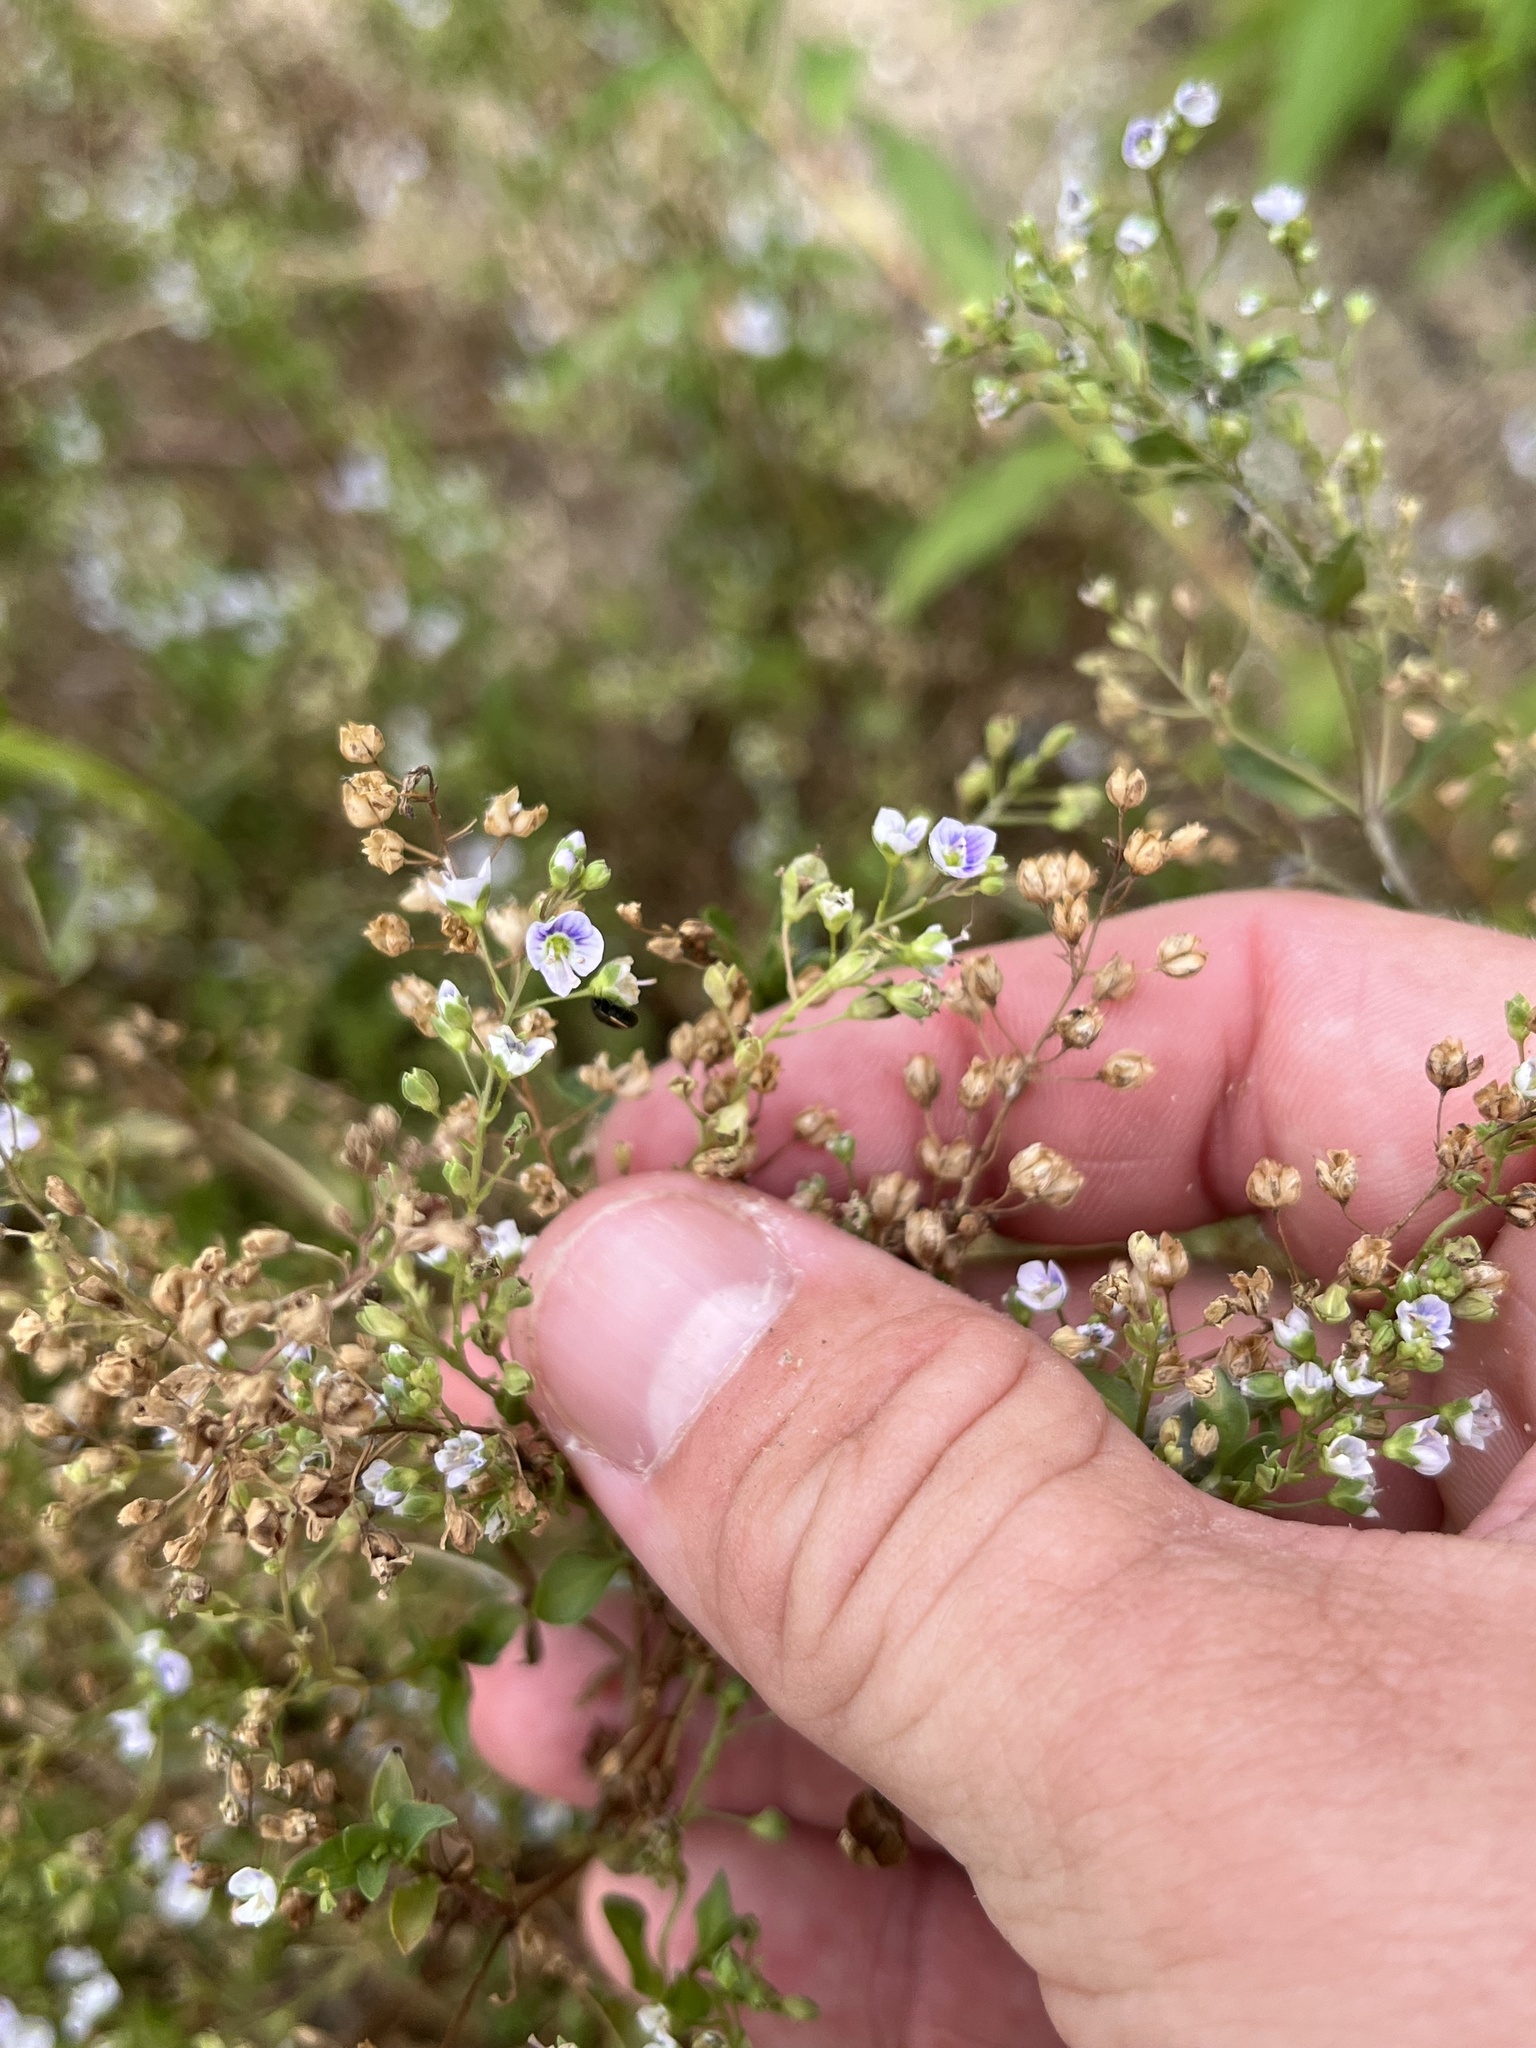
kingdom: Plantae
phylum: Tracheophyta
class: Magnoliopsida
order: Lamiales
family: Plantaginaceae
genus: Veronica
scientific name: Veronica anagallis-aquatica
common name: Water speedwell
